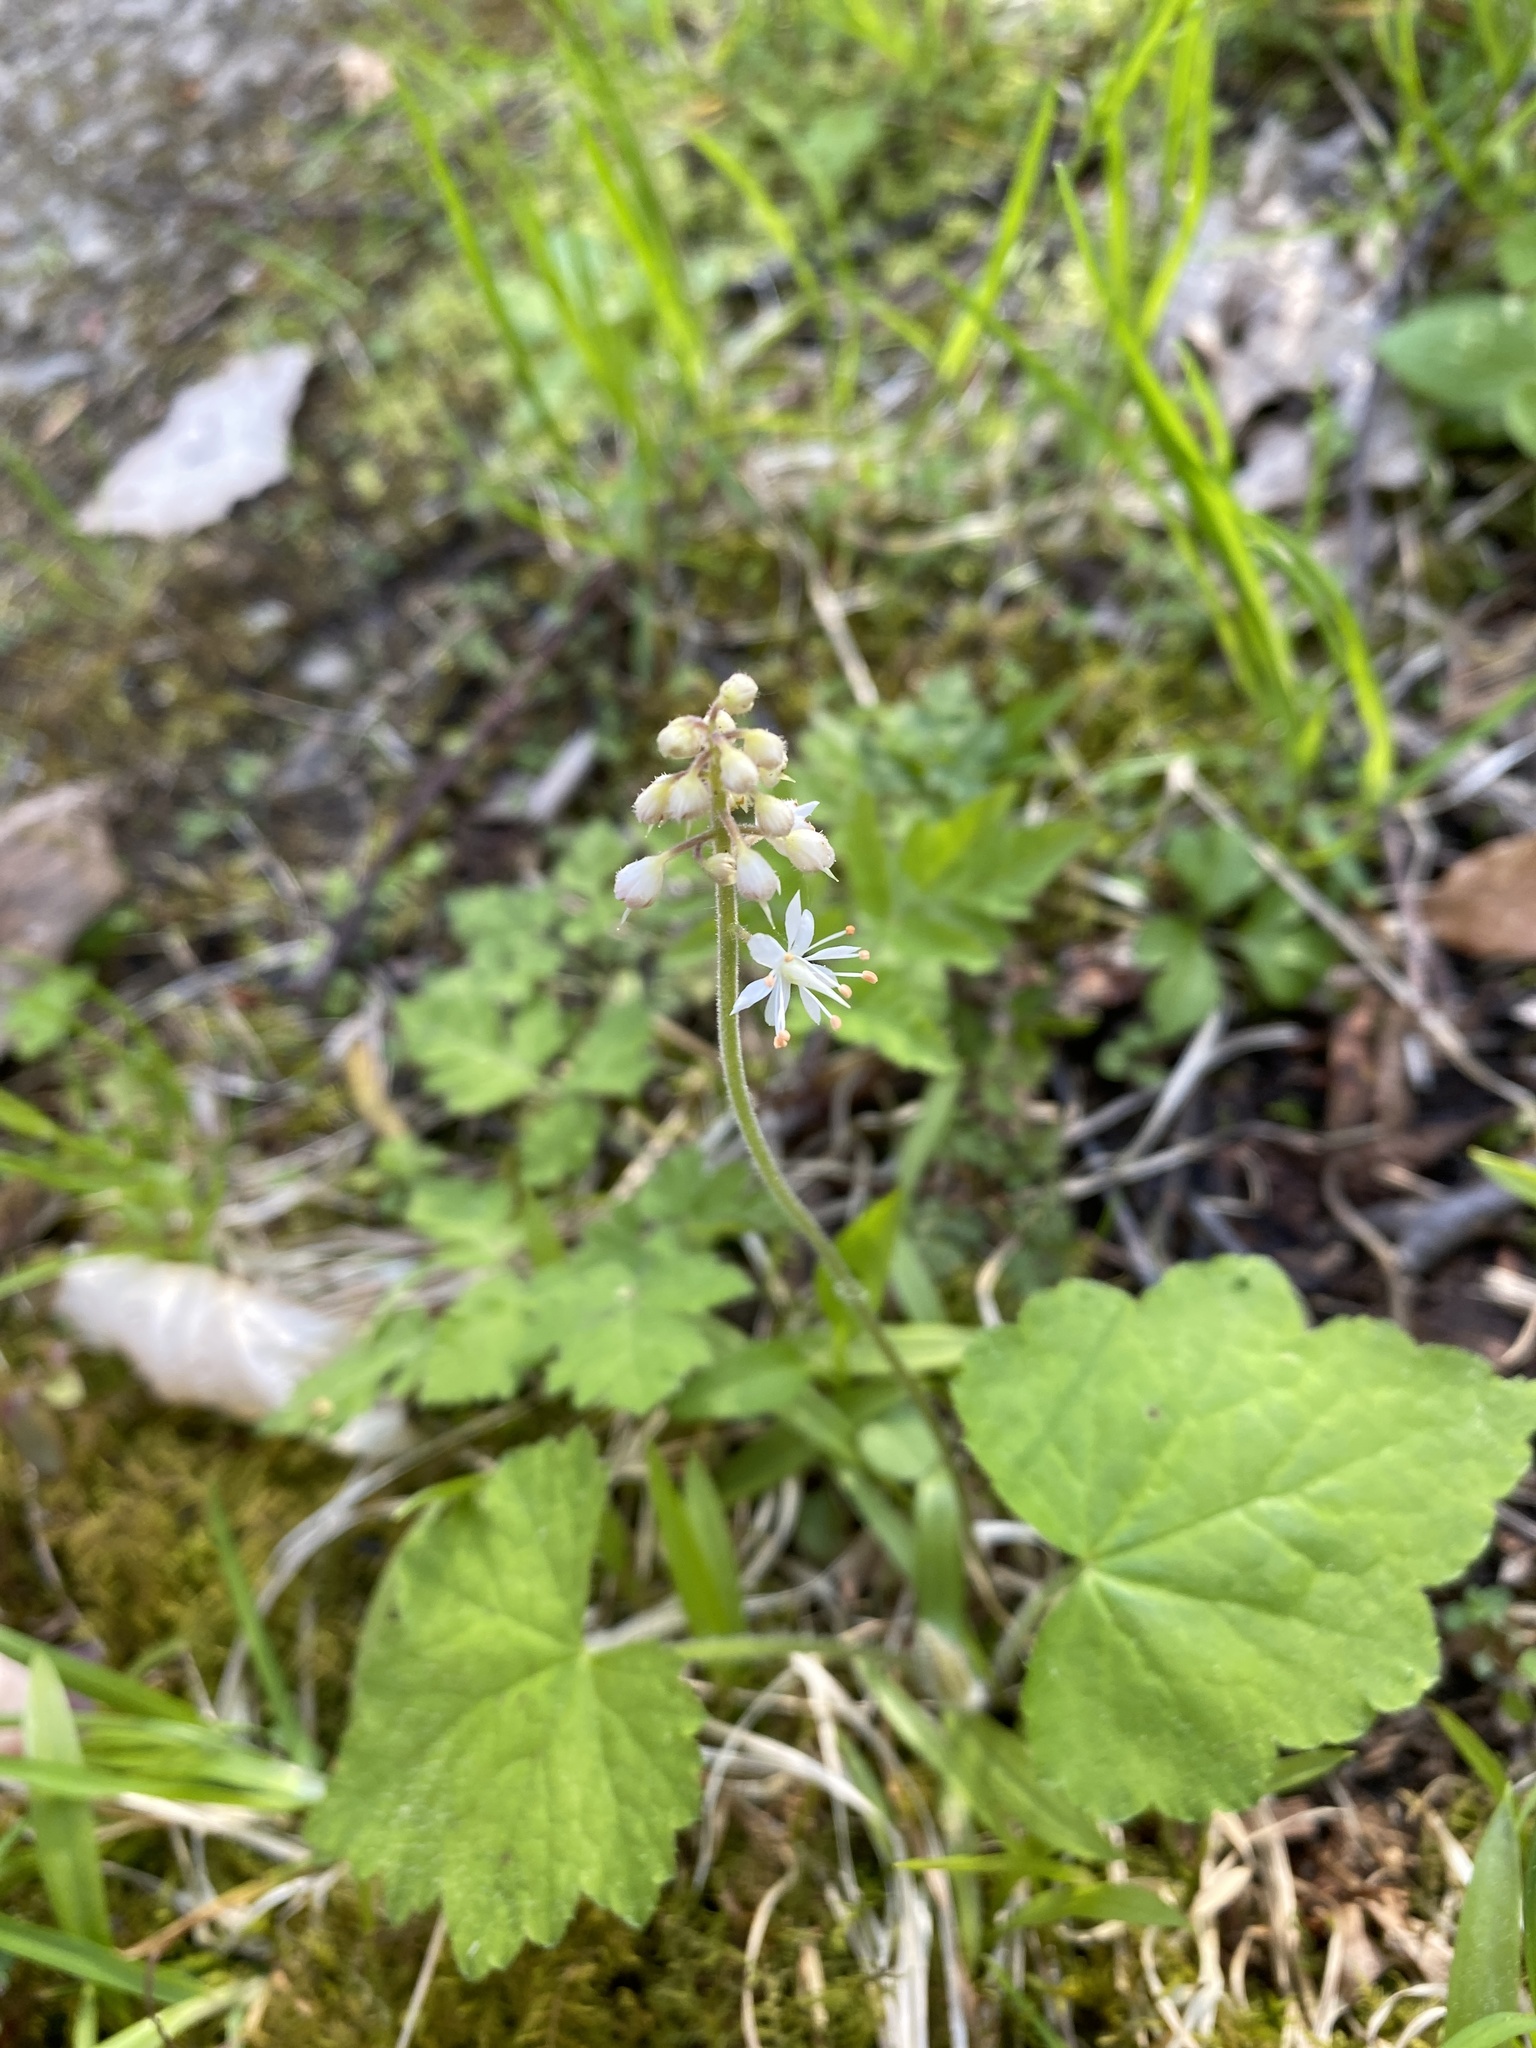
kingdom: Plantae
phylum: Tracheophyta
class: Magnoliopsida
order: Saxifragales
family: Saxifragaceae
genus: Tiarella
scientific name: Tiarella stolonifera
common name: Stoloniferous foamflower
